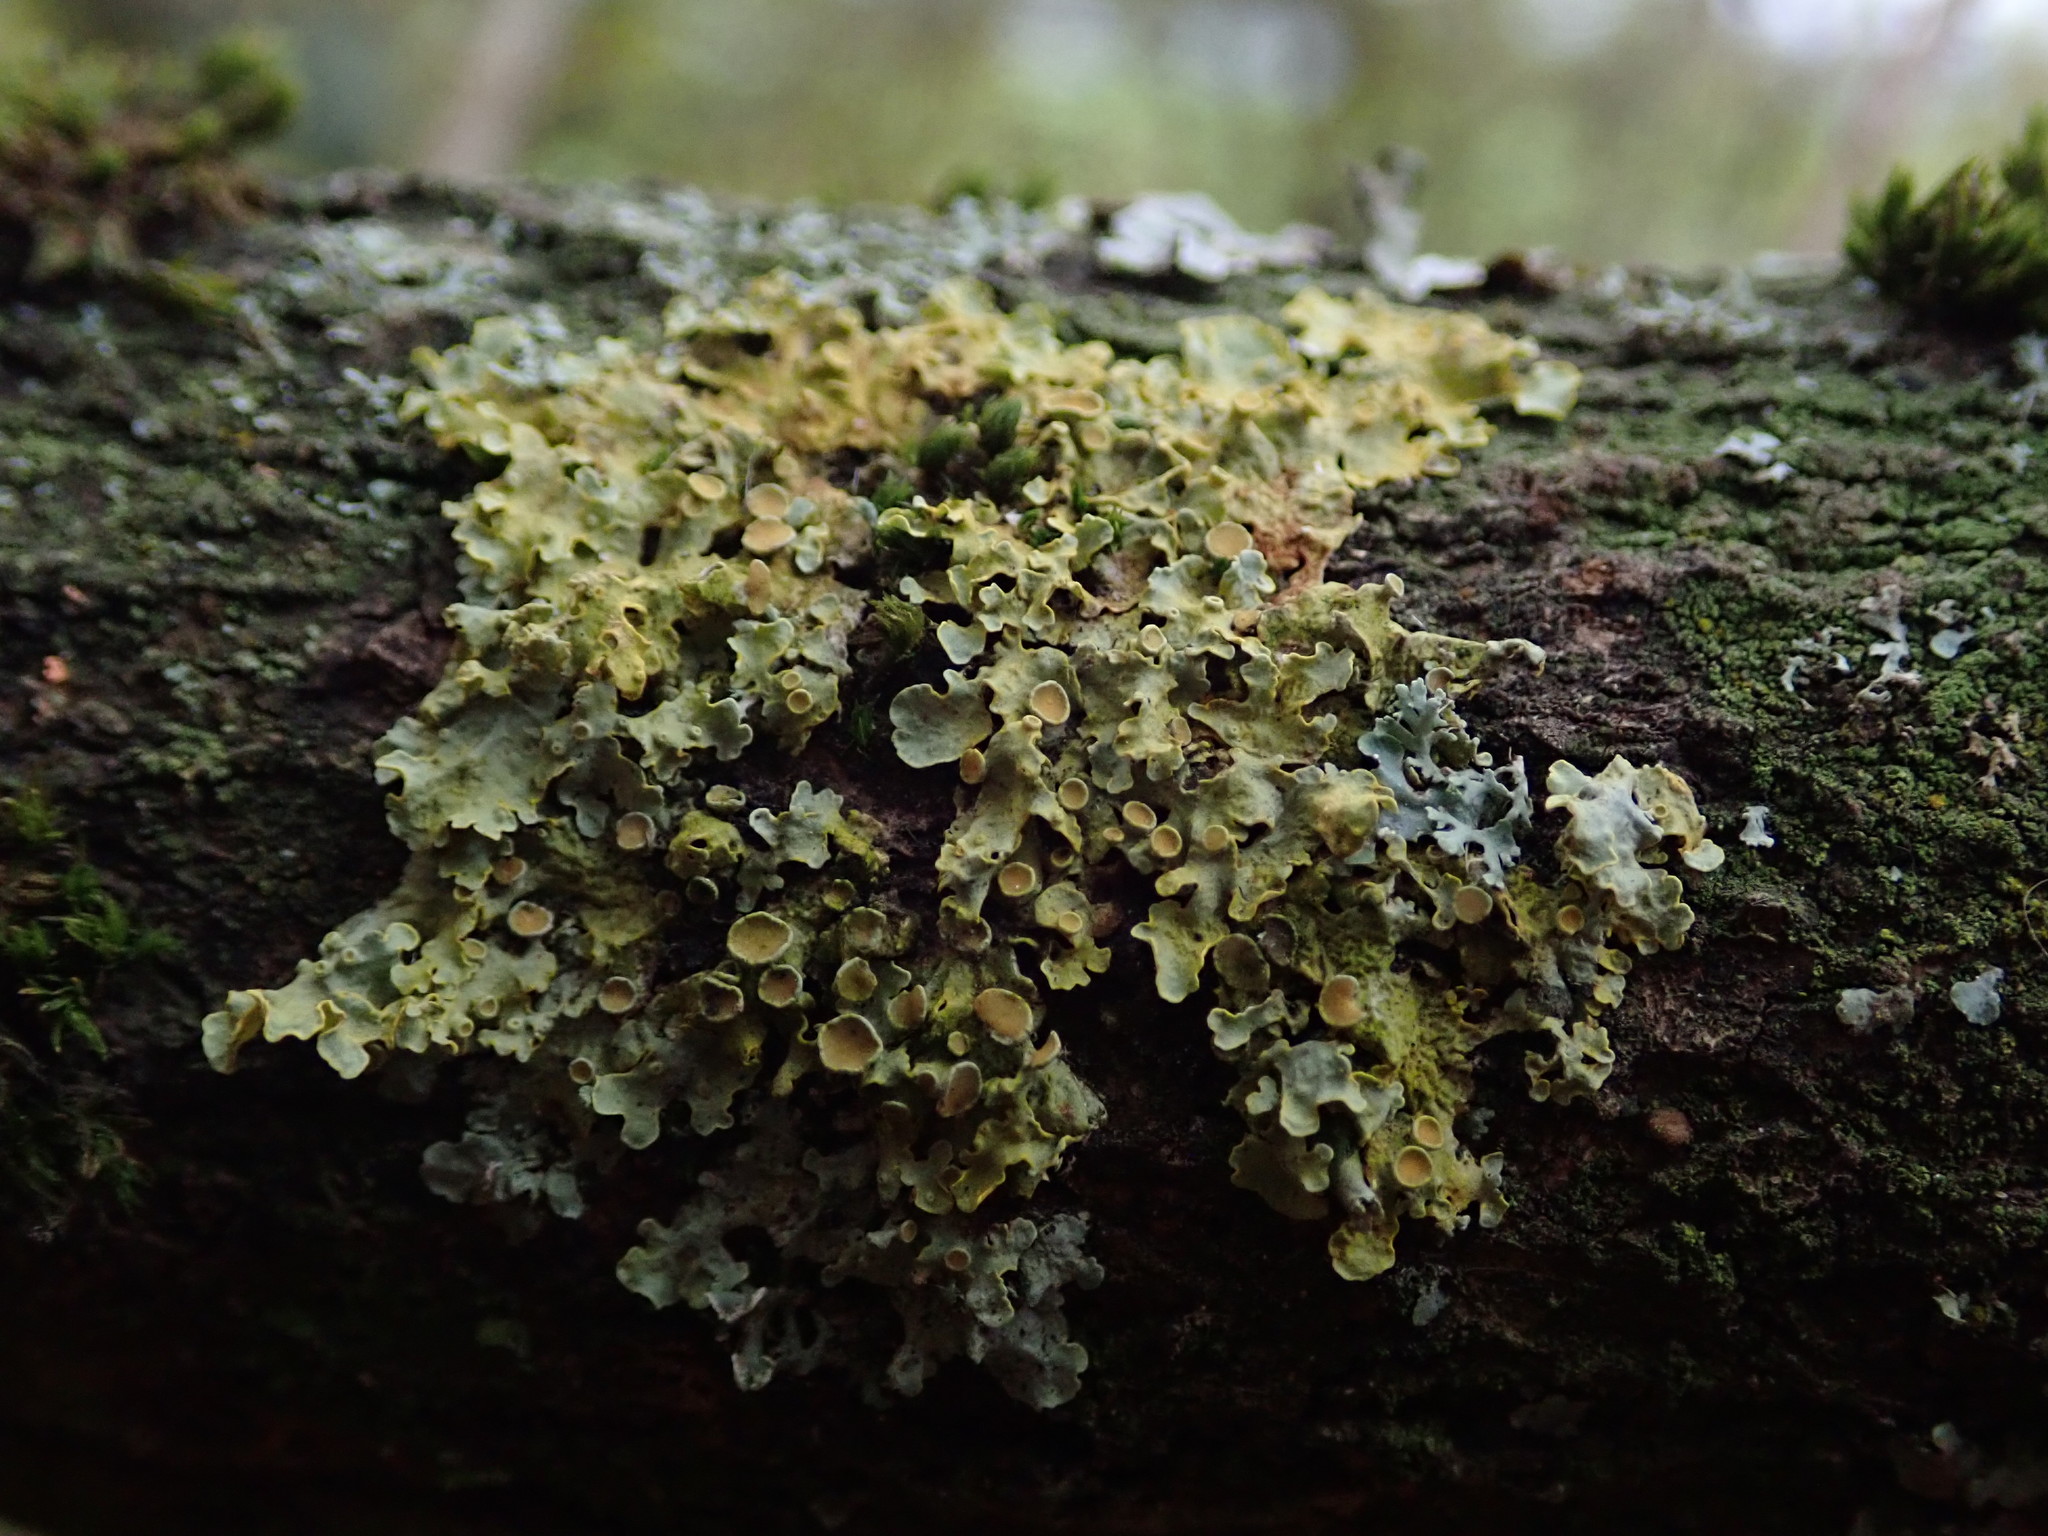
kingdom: Fungi
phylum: Ascomycota
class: Lecanoromycetes
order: Teloschistales
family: Teloschistaceae
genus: Xanthoria
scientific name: Xanthoria parietina
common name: Common orange lichen
